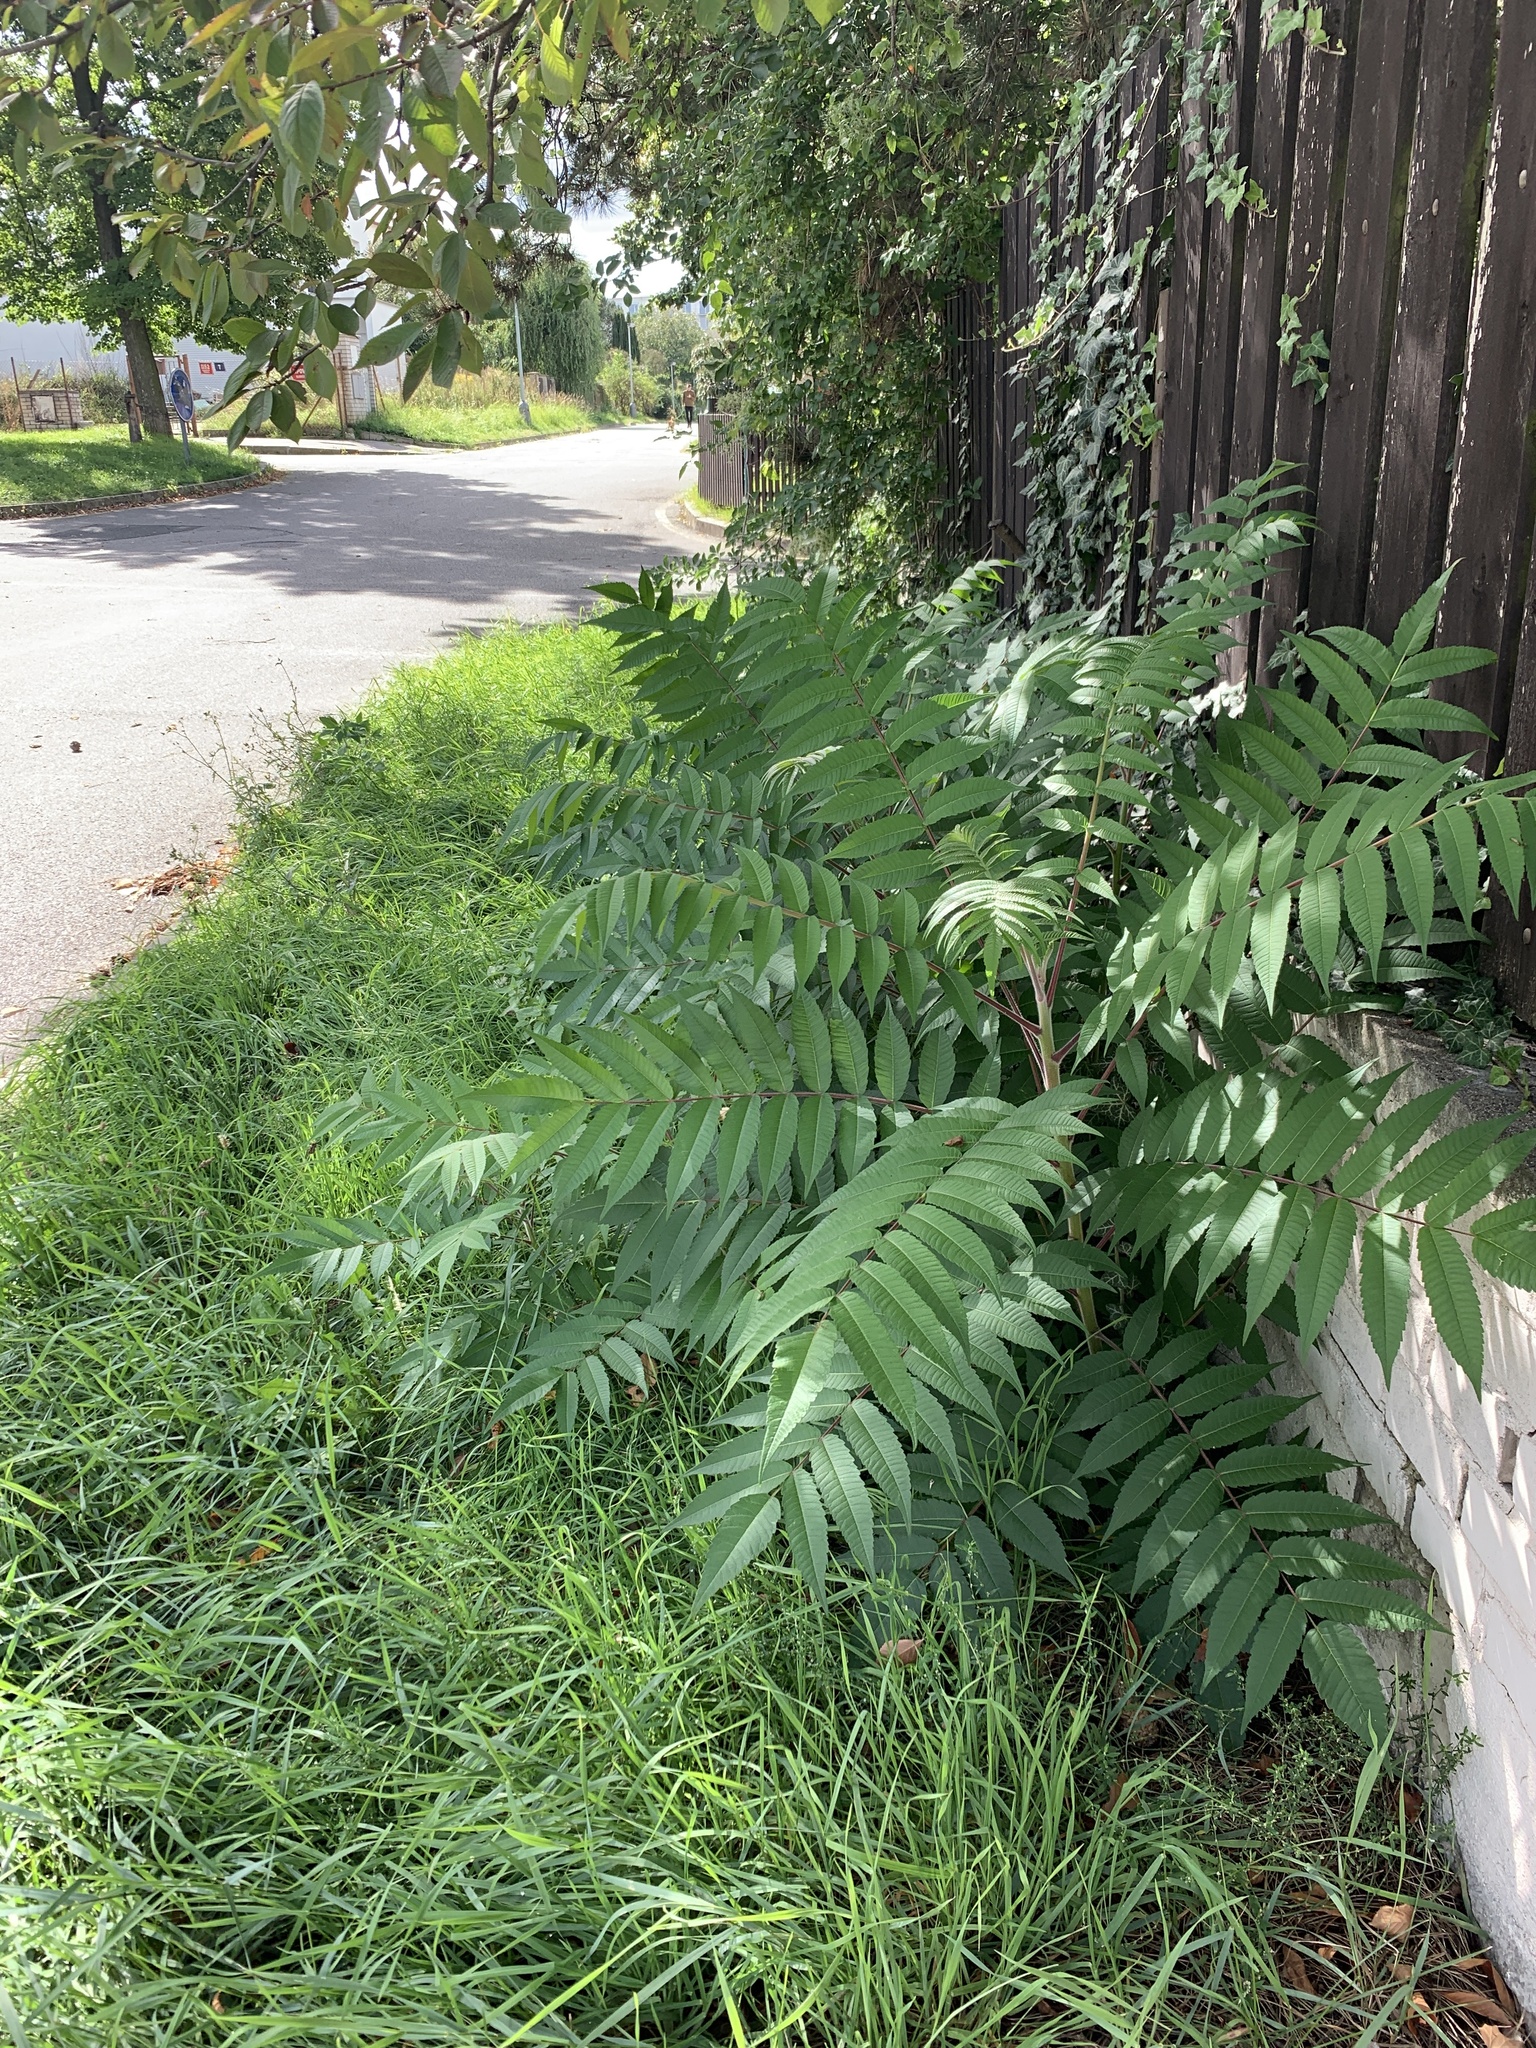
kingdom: Plantae
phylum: Tracheophyta
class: Magnoliopsida
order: Sapindales
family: Anacardiaceae
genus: Rhus
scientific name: Rhus typhina
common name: Staghorn sumac
